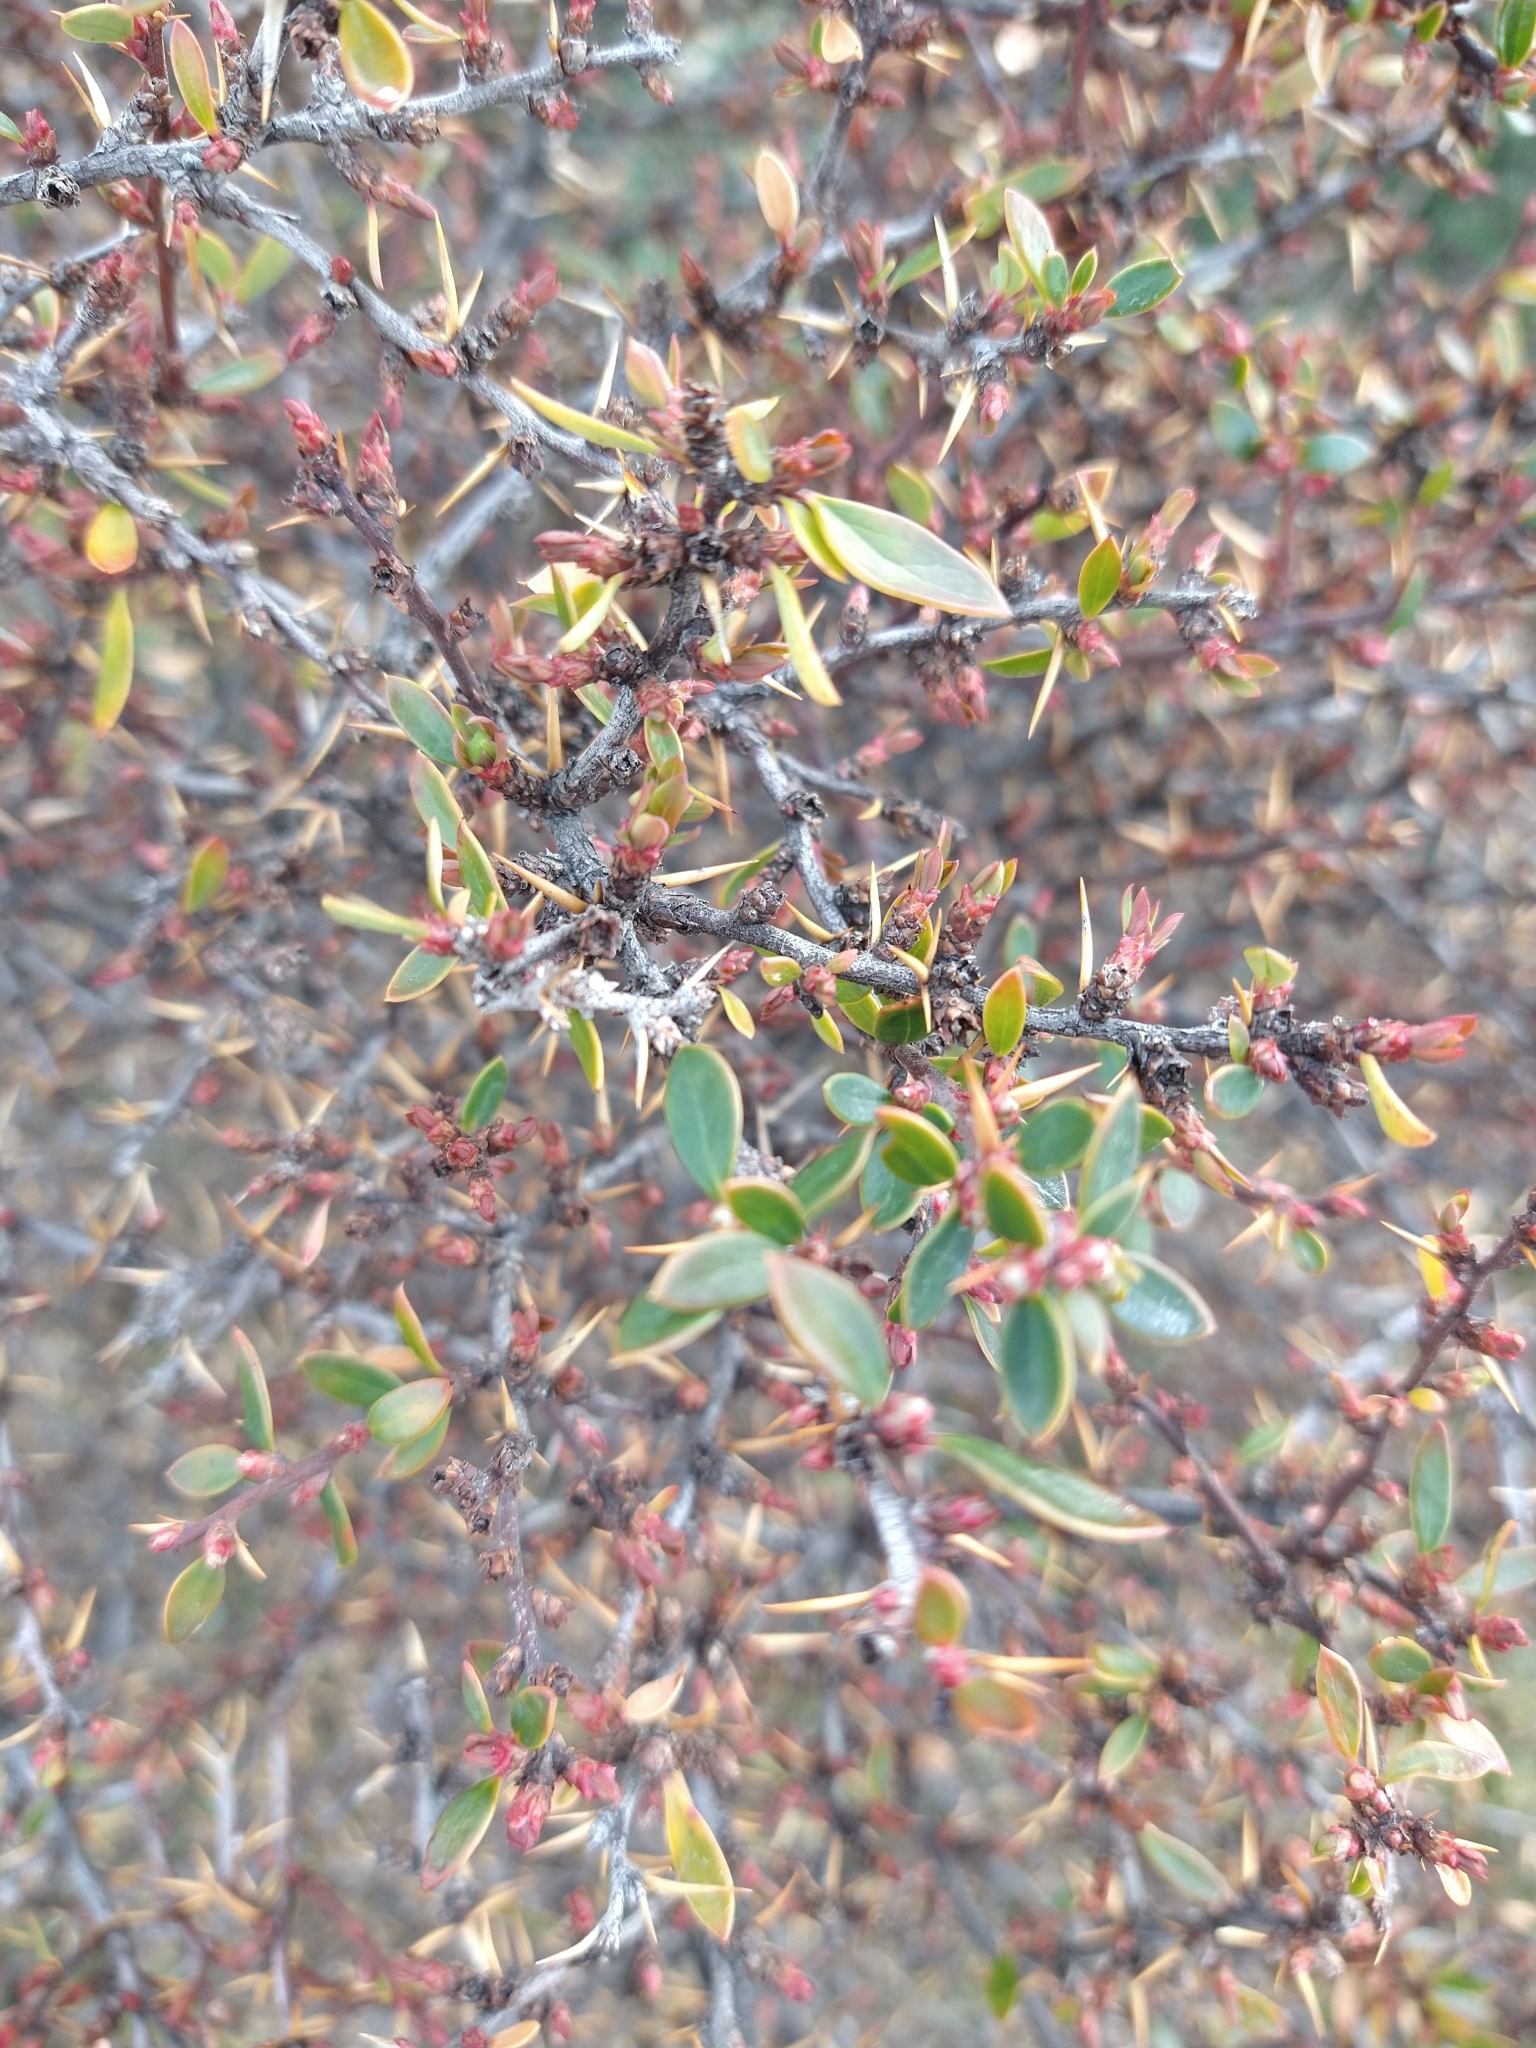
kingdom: Plantae
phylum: Tracheophyta
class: Magnoliopsida
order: Ranunculales
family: Berberidaceae
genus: Berberis
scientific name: Berberis microphylla
